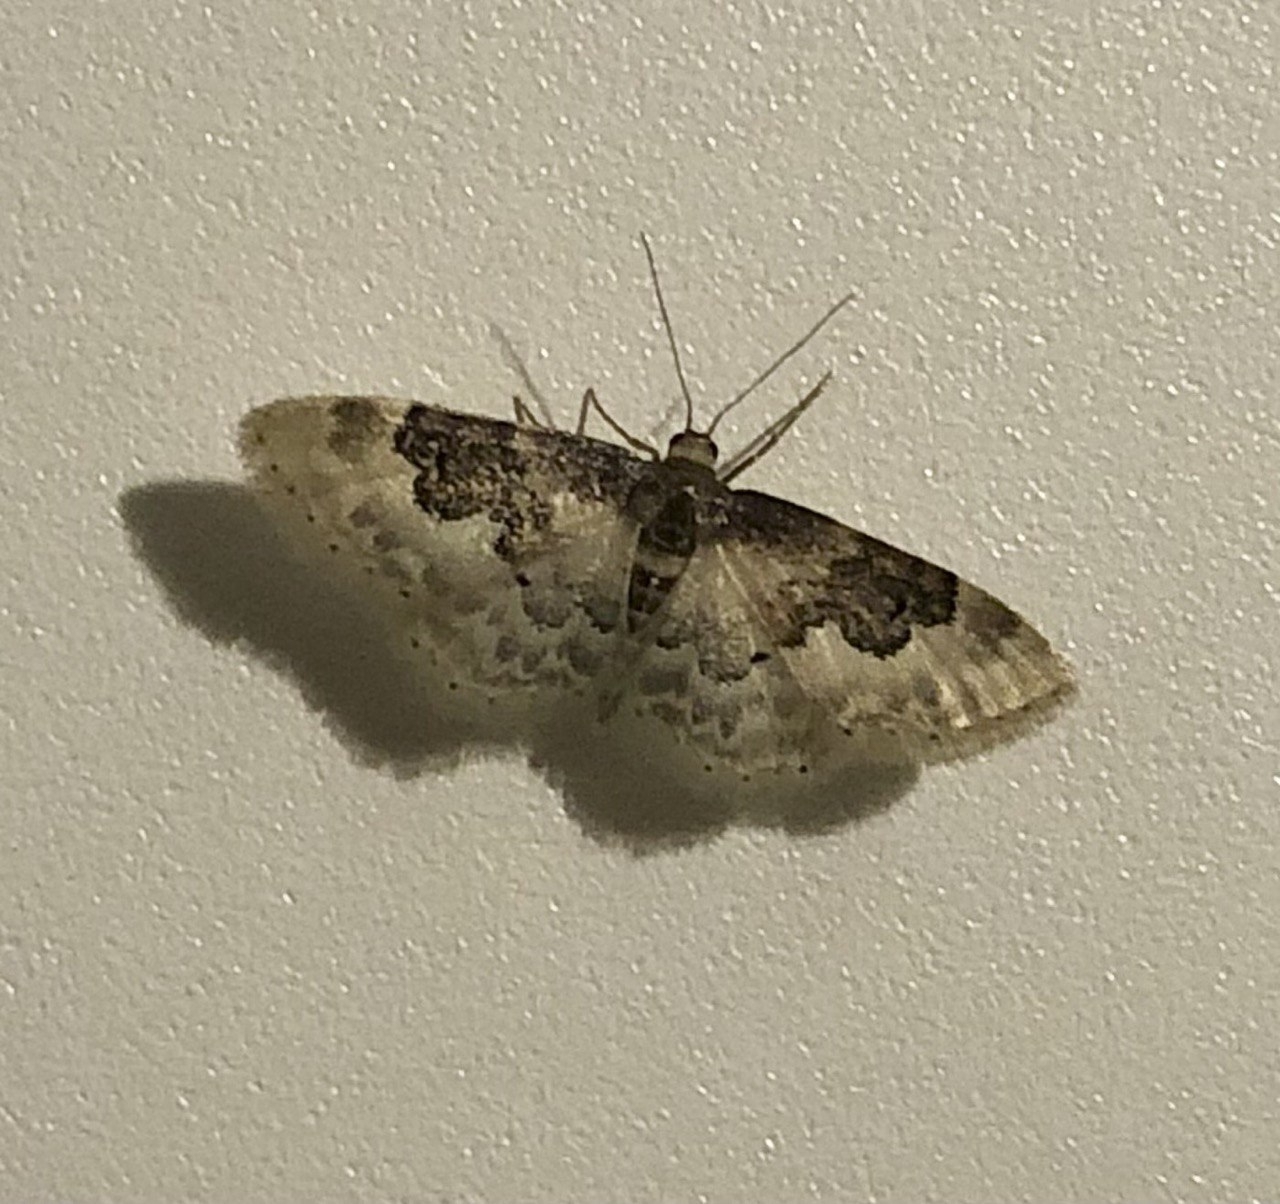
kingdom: Animalia
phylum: Arthropoda
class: Insecta
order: Lepidoptera
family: Geometridae
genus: Idaea
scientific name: Idaea rusticata
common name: Least carpet
